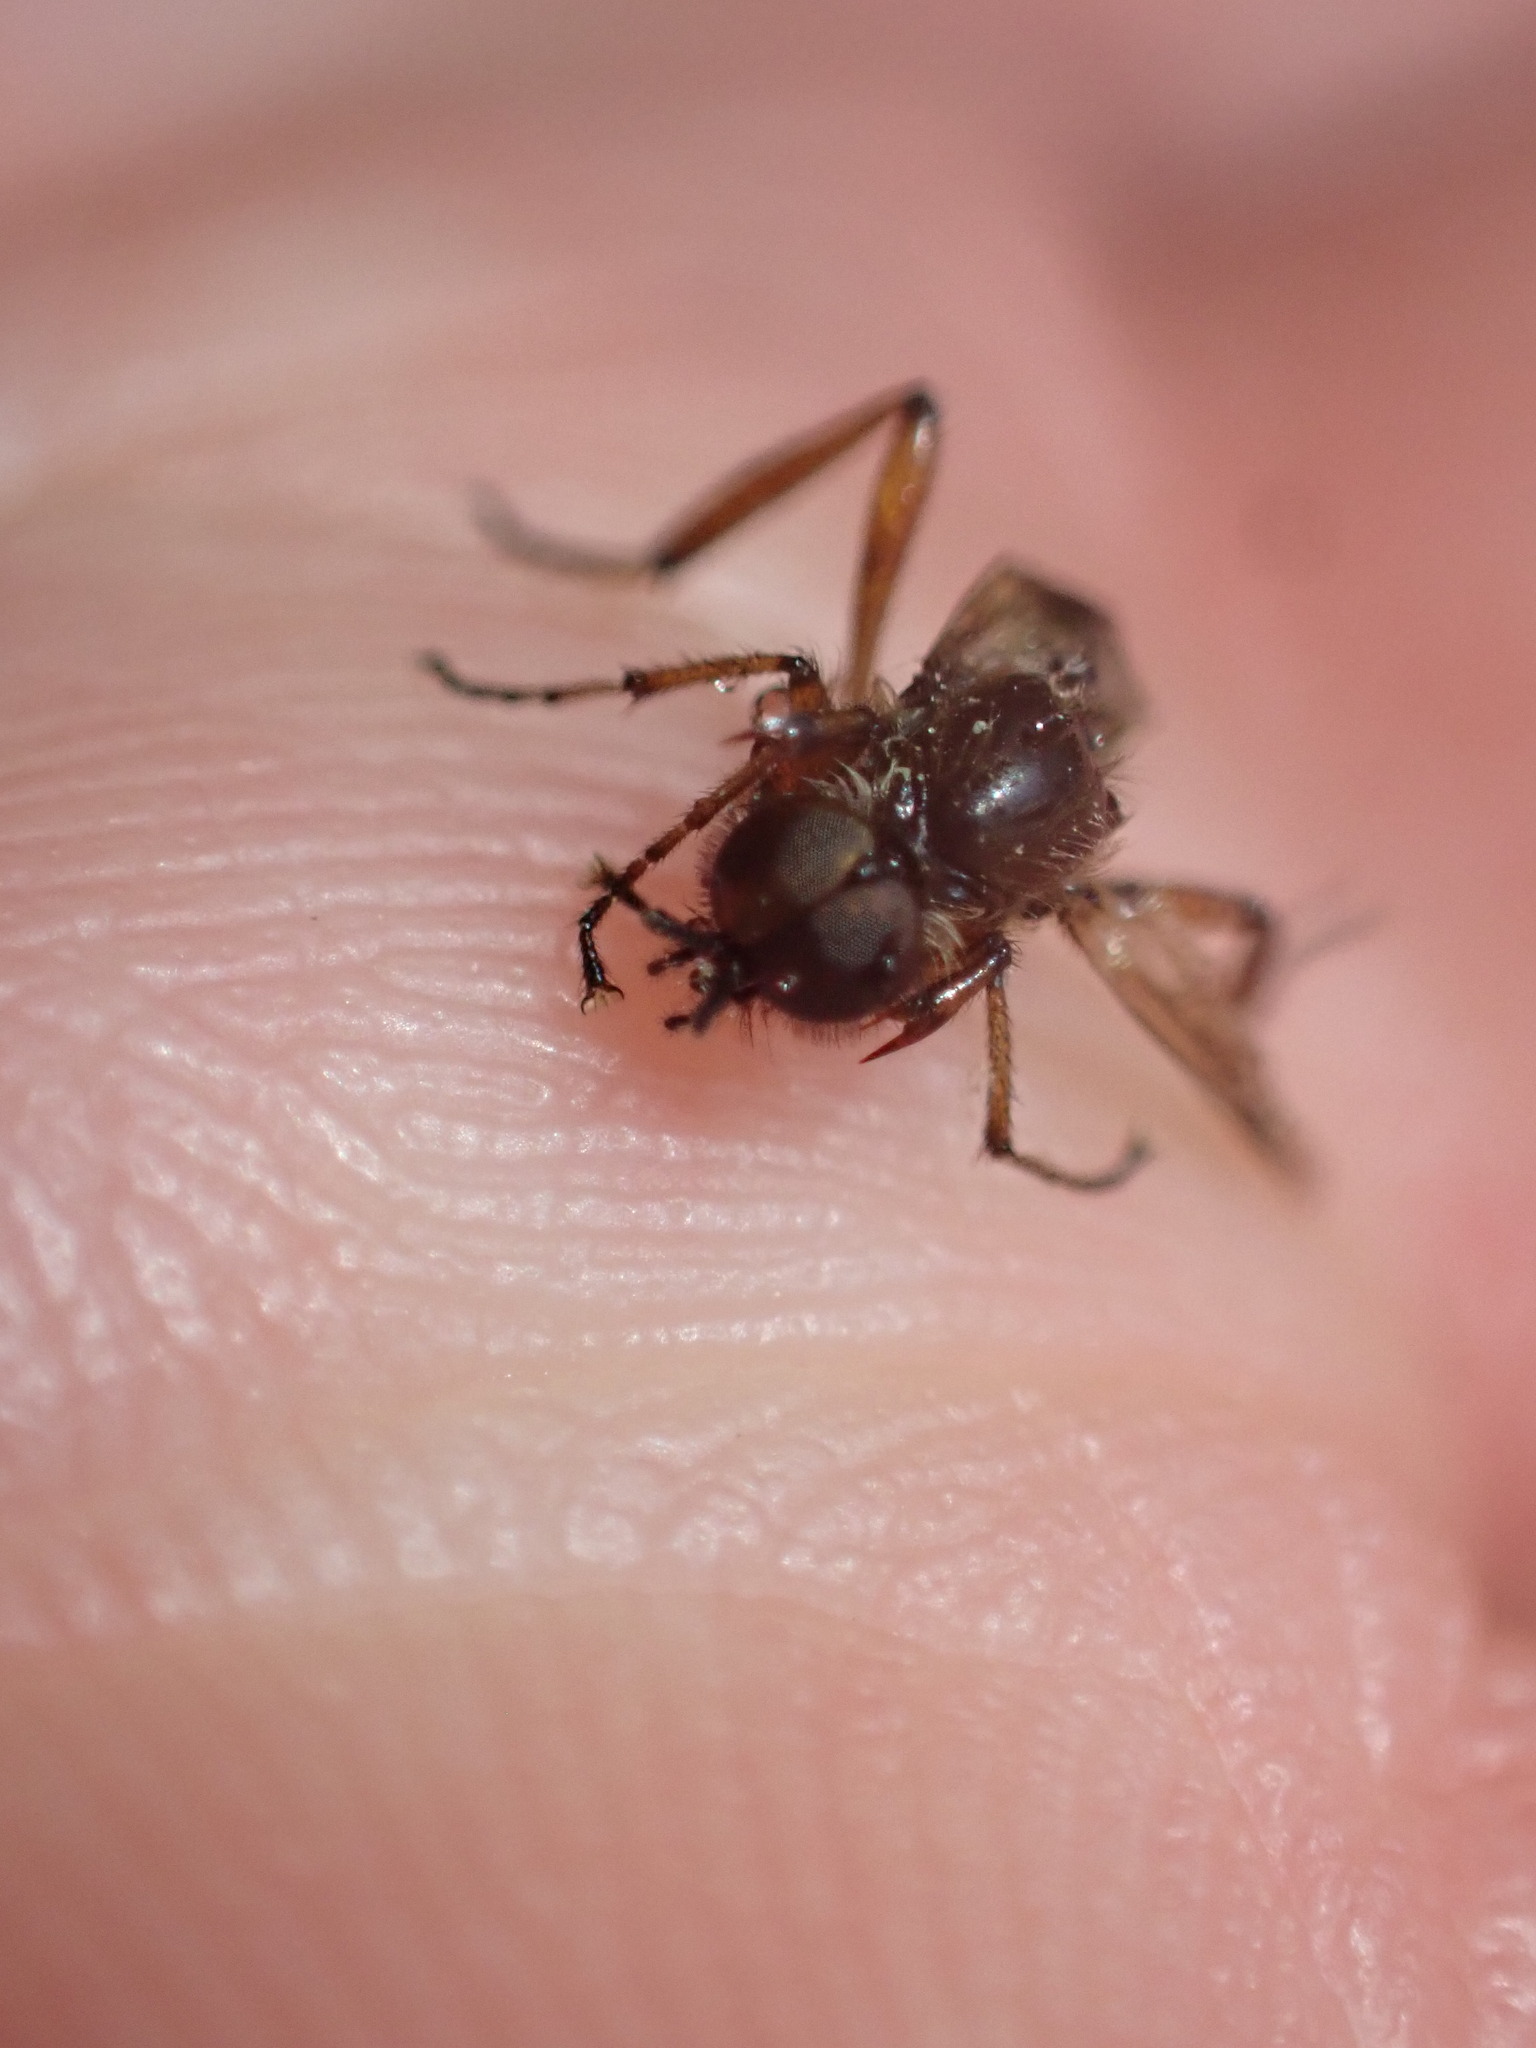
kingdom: Animalia
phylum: Arthropoda
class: Insecta
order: Diptera
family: Bibionidae
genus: Bibio
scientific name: Bibio articulatus
